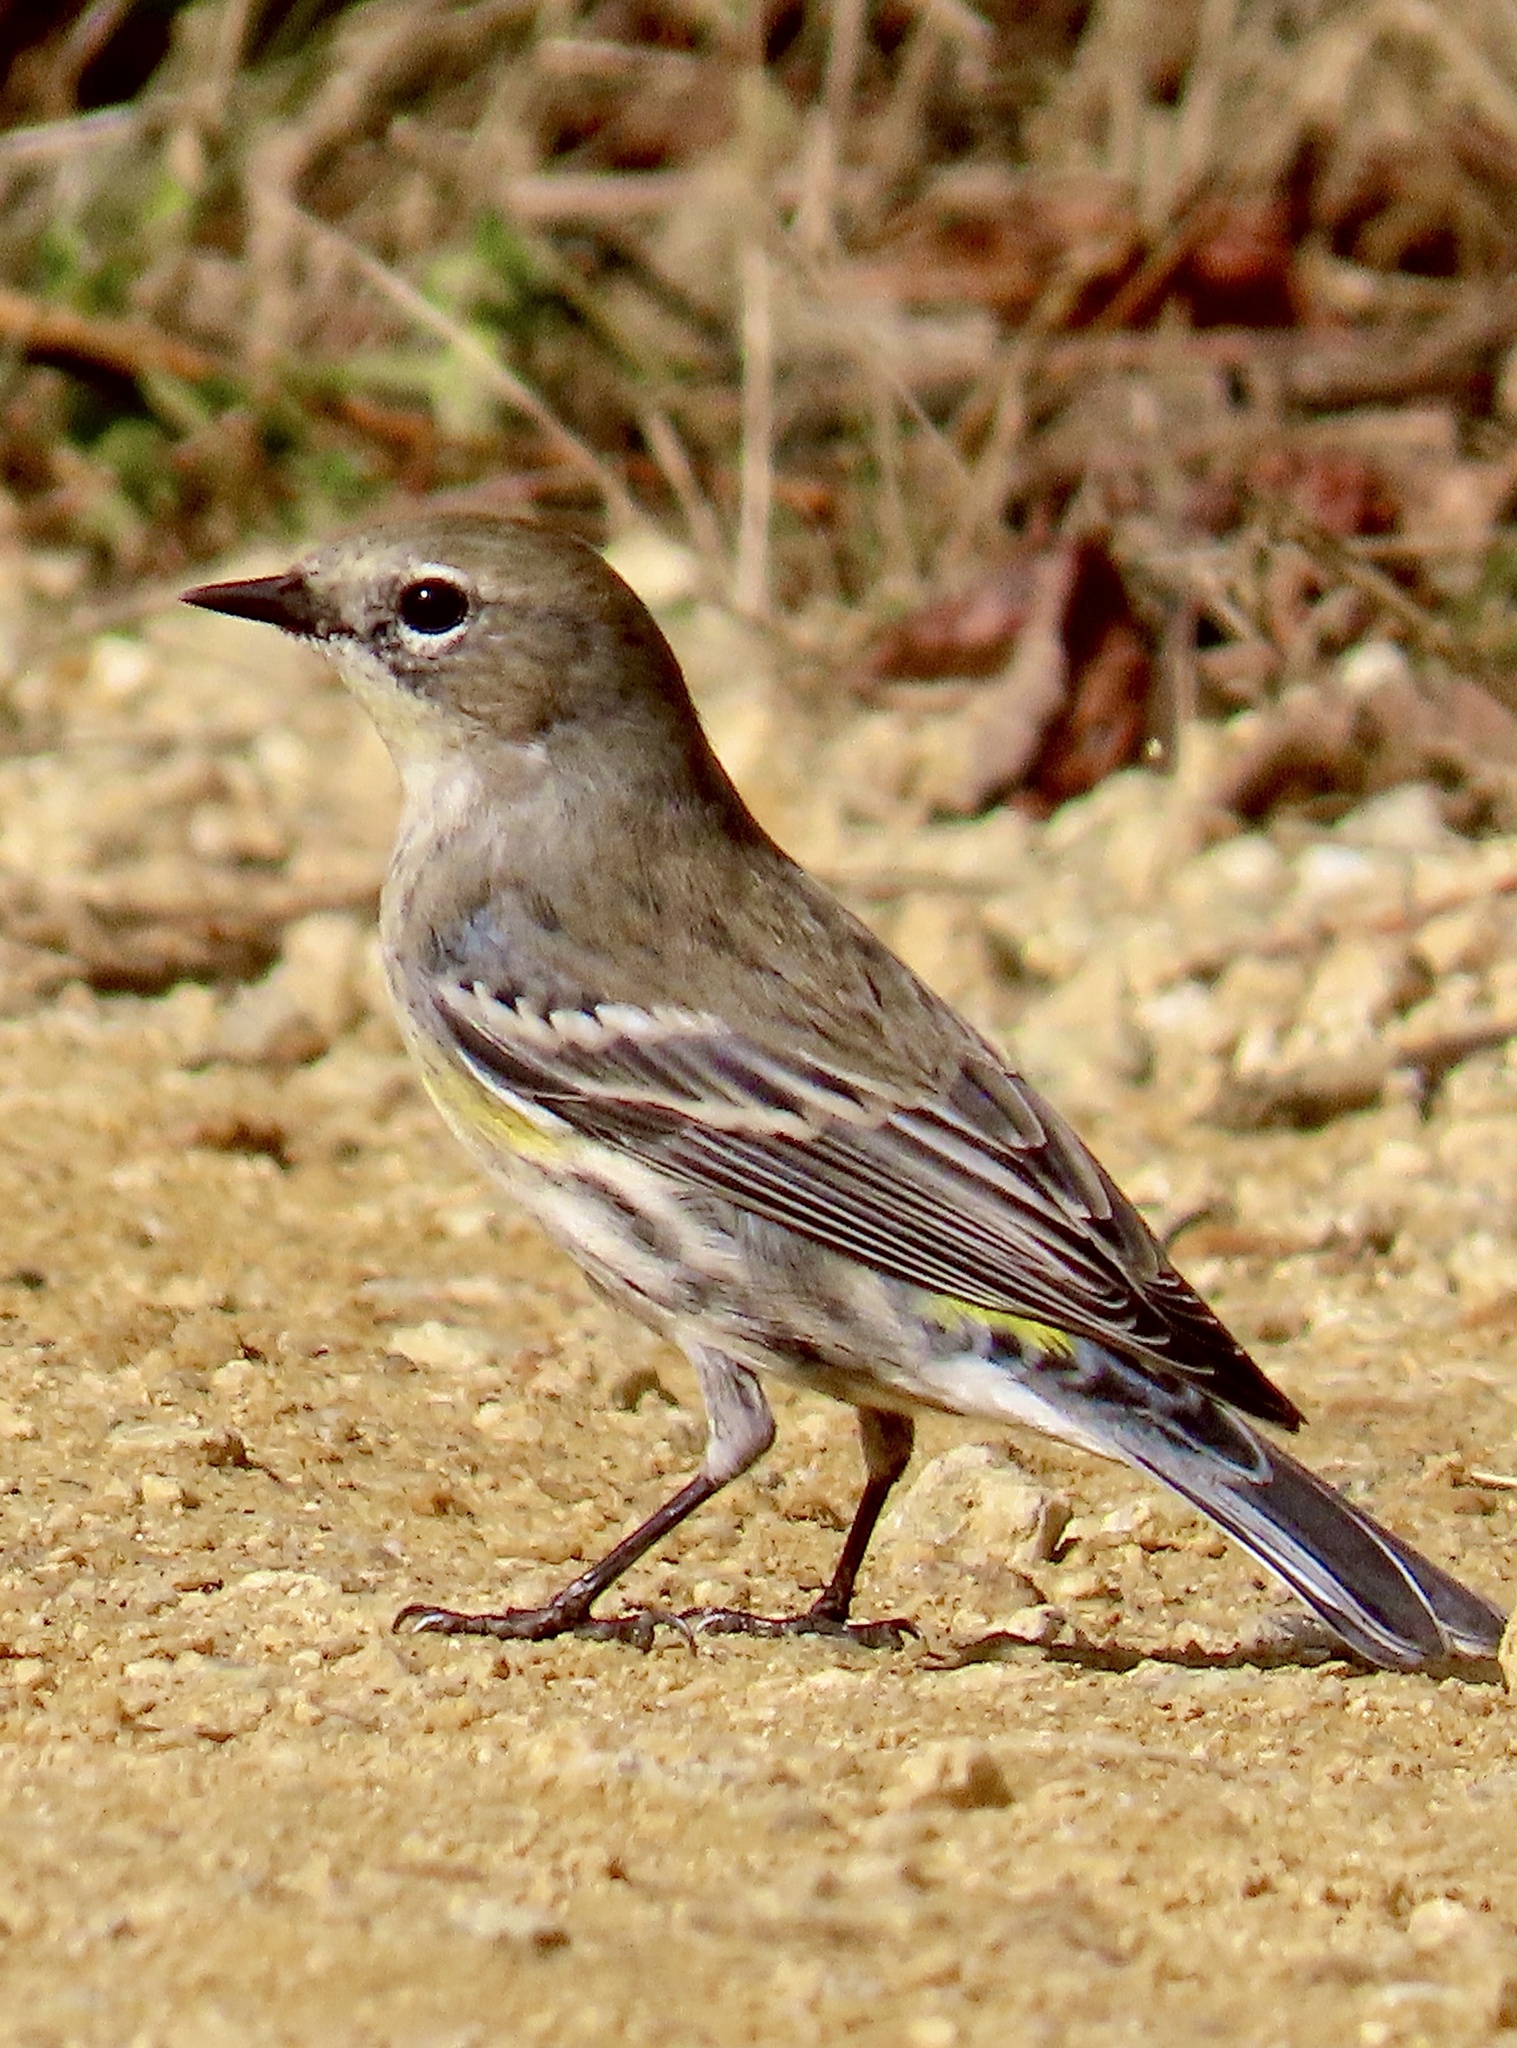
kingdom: Animalia
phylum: Chordata
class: Aves
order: Passeriformes
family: Parulidae
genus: Setophaga
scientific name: Setophaga coronata
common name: Myrtle warbler
